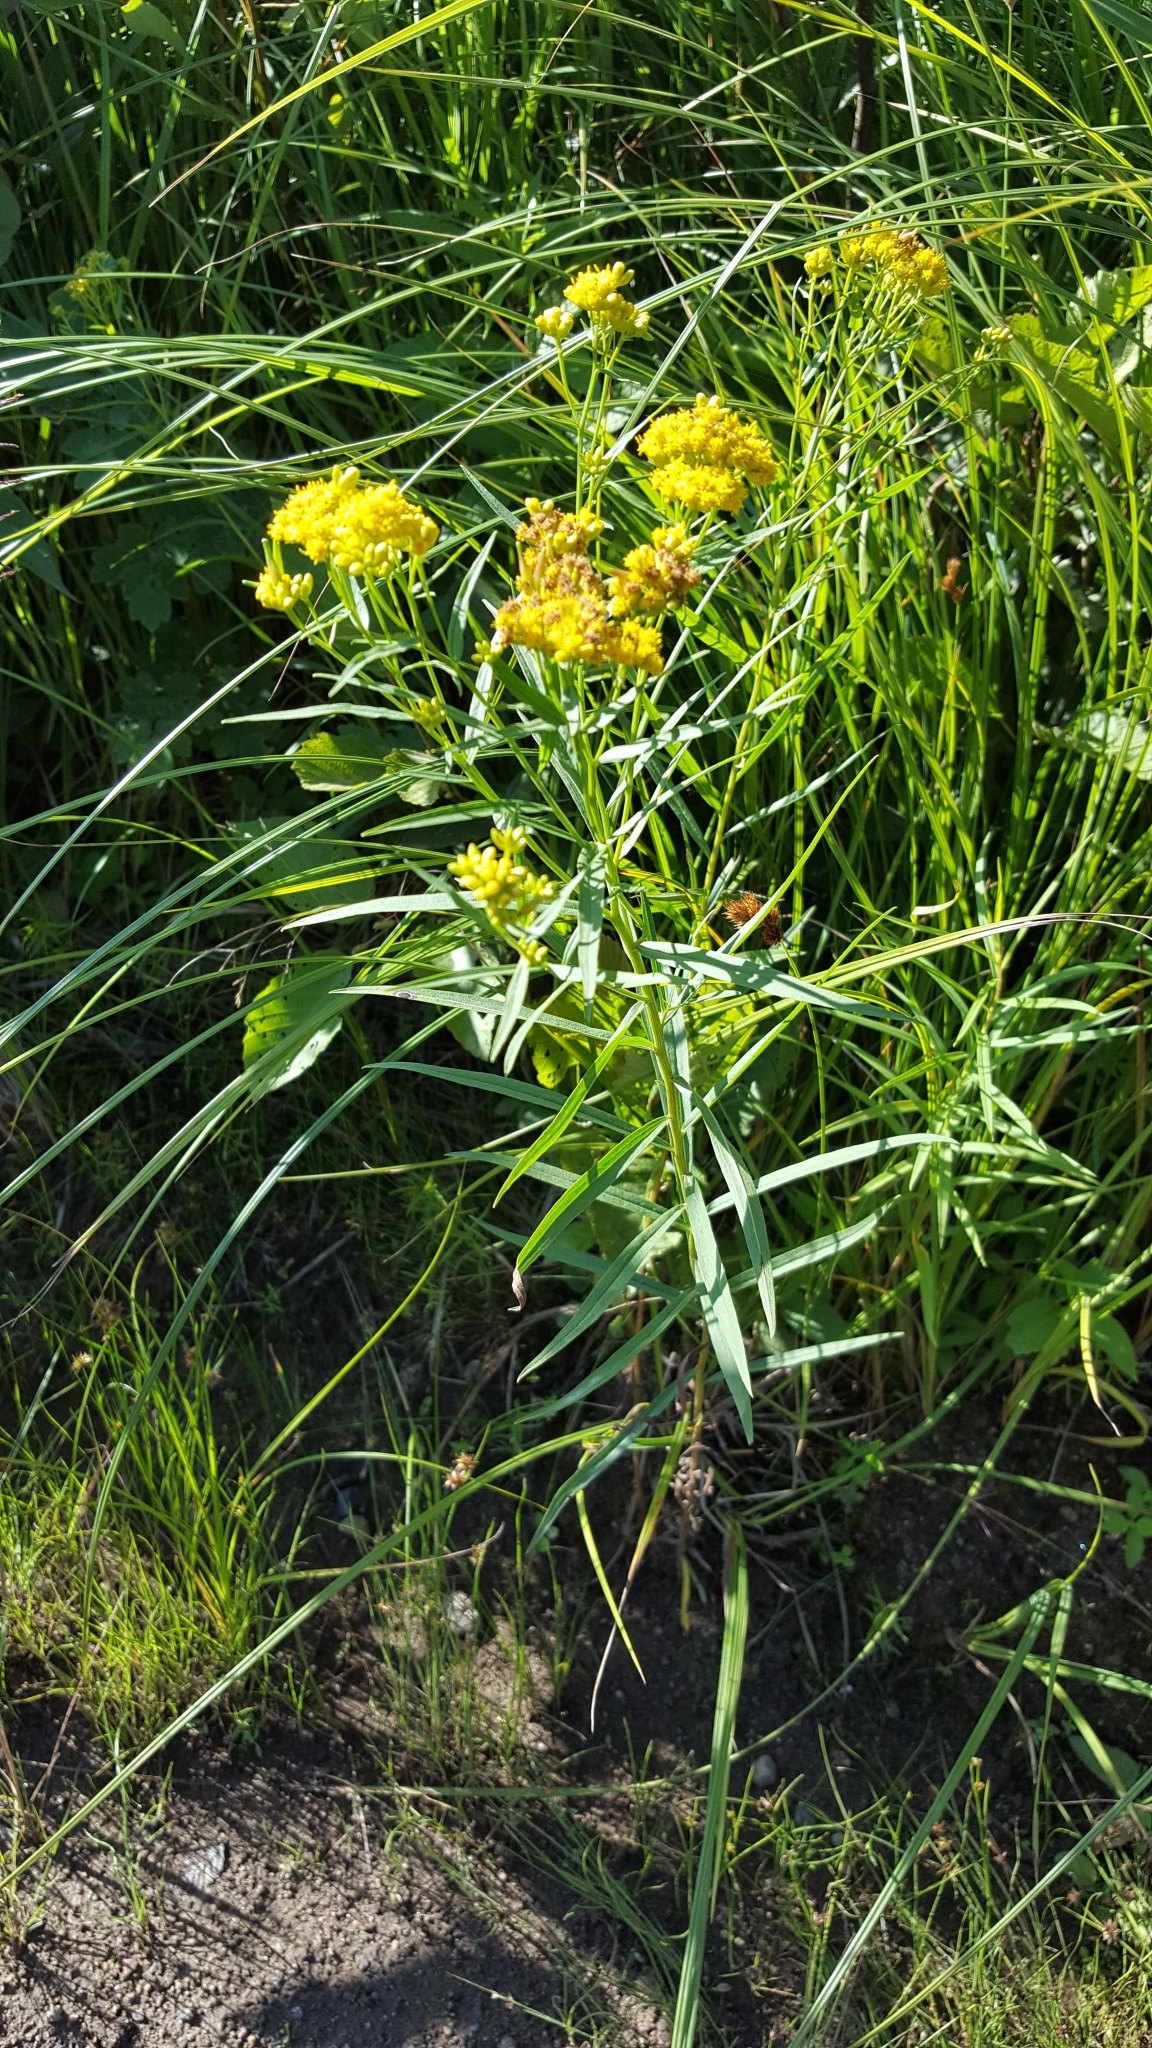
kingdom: Plantae
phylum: Tracheophyta
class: Magnoliopsida
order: Asterales
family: Asteraceae
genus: Euthamia
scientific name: Euthamia graminifolia
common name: Common goldentop
